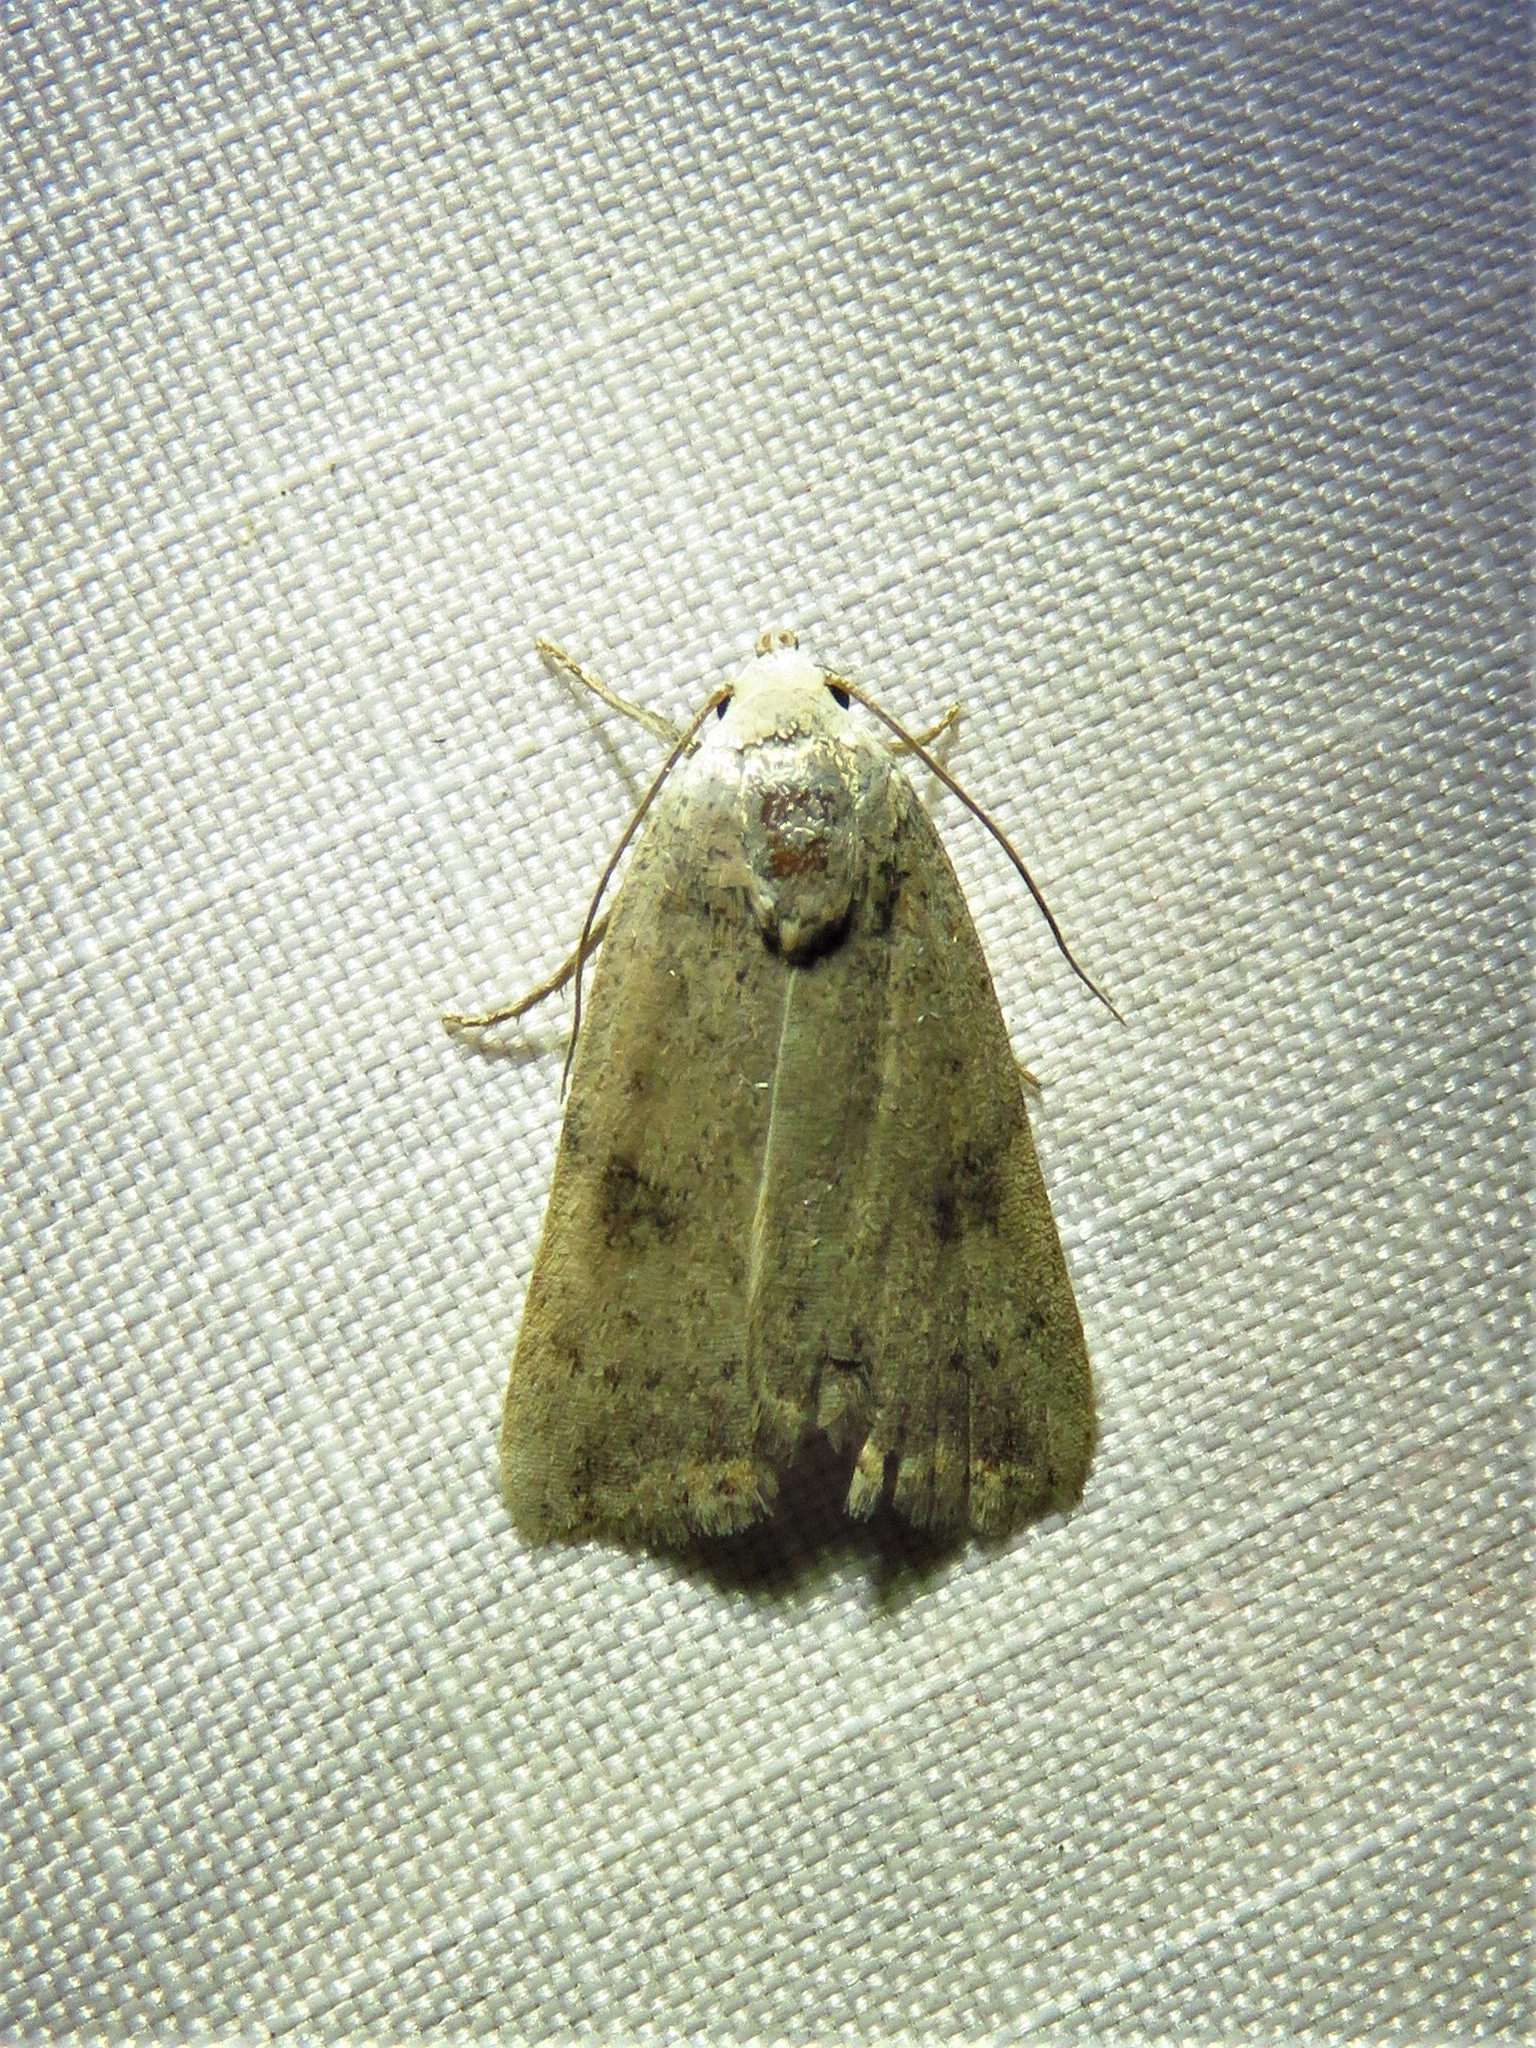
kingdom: Animalia
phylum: Arthropoda
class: Insecta
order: Lepidoptera
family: Noctuidae
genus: Micrathetis
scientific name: Micrathetis triplex
